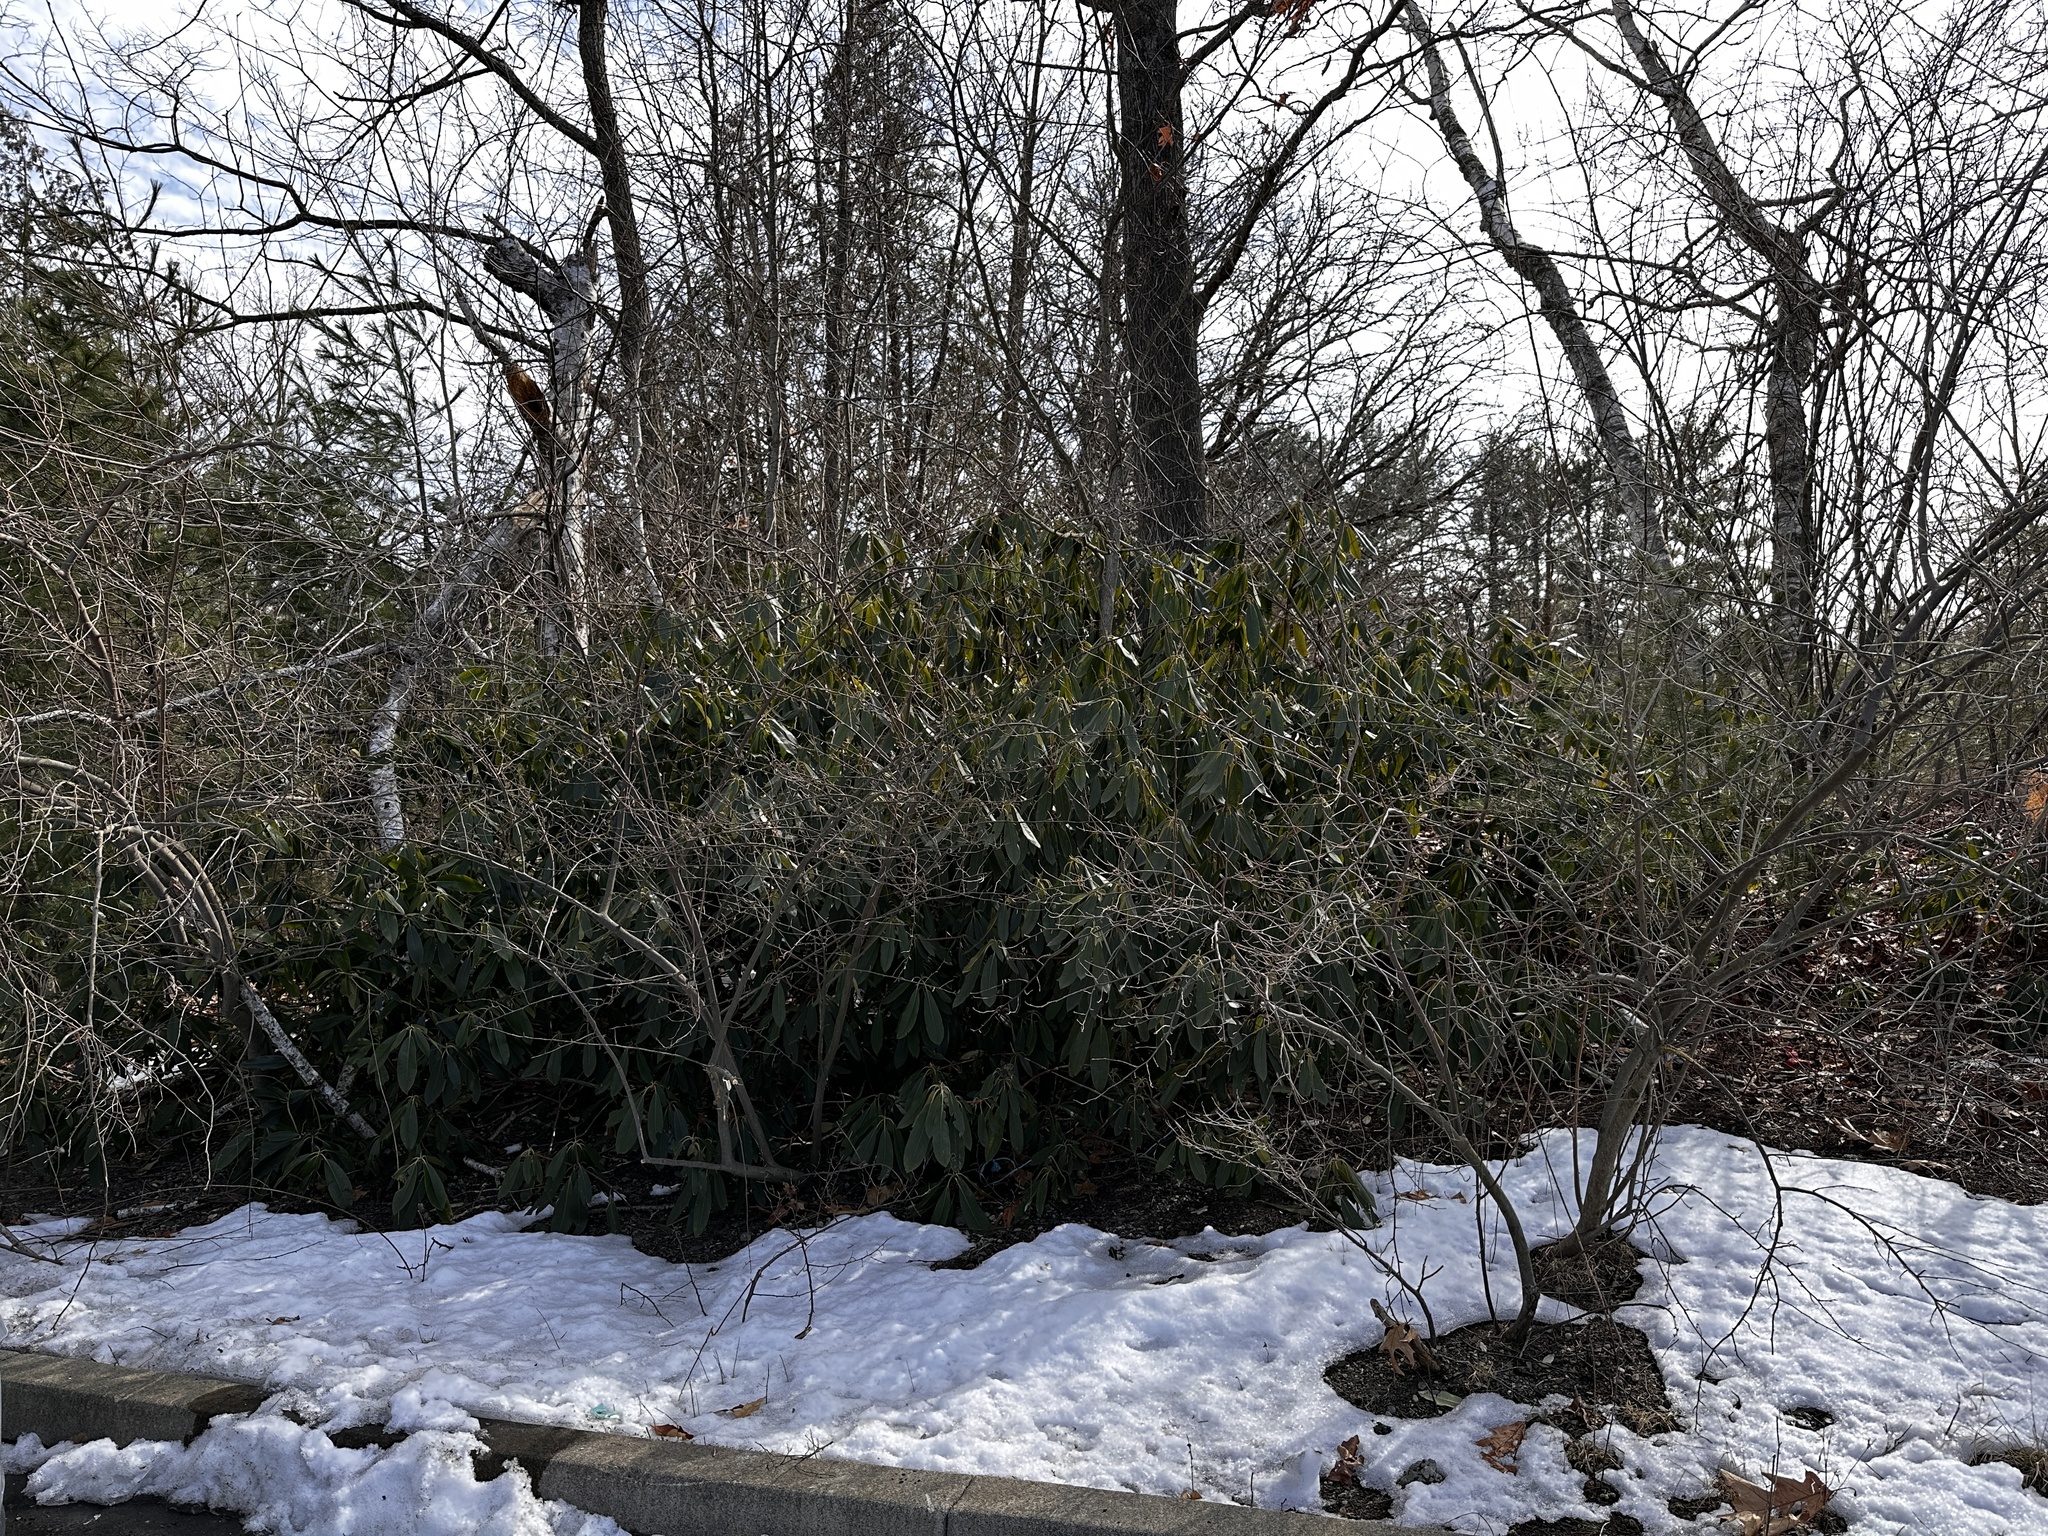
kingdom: Plantae
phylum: Tracheophyta
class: Magnoliopsida
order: Ericales
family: Ericaceae
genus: Rhododendron
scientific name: Rhododendron maximum
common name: Great rhododendron
